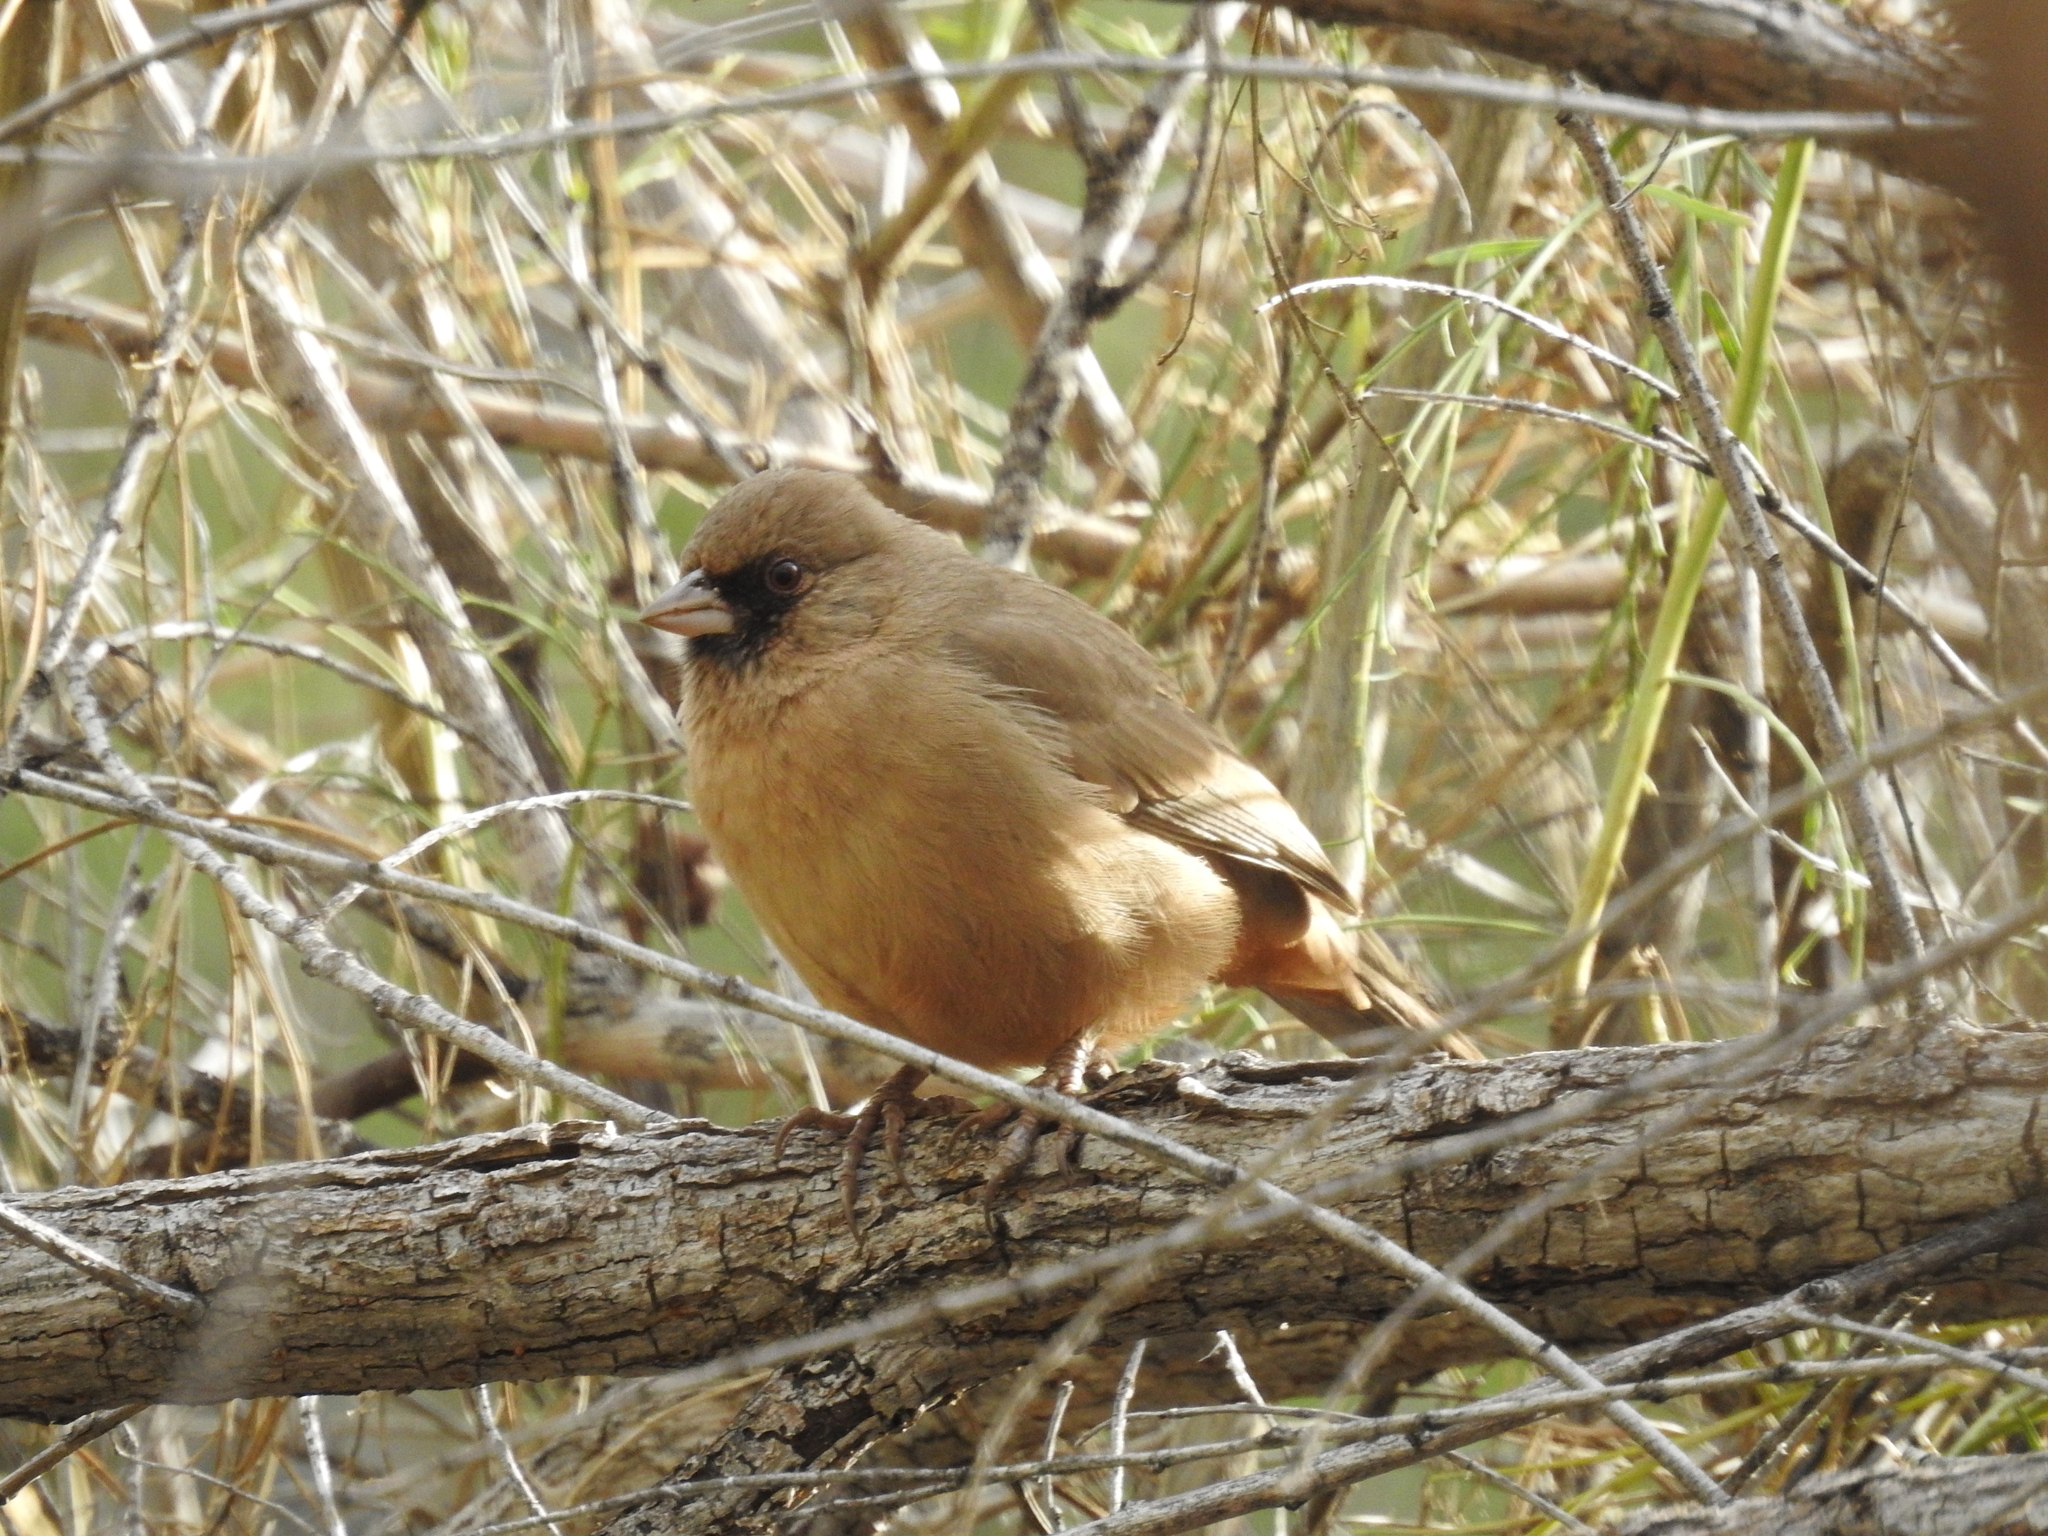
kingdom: Animalia
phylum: Chordata
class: Aves
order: Passeriformes
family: Passerellidae
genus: Melozone
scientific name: Melozone aberti
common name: Abert's towhee
